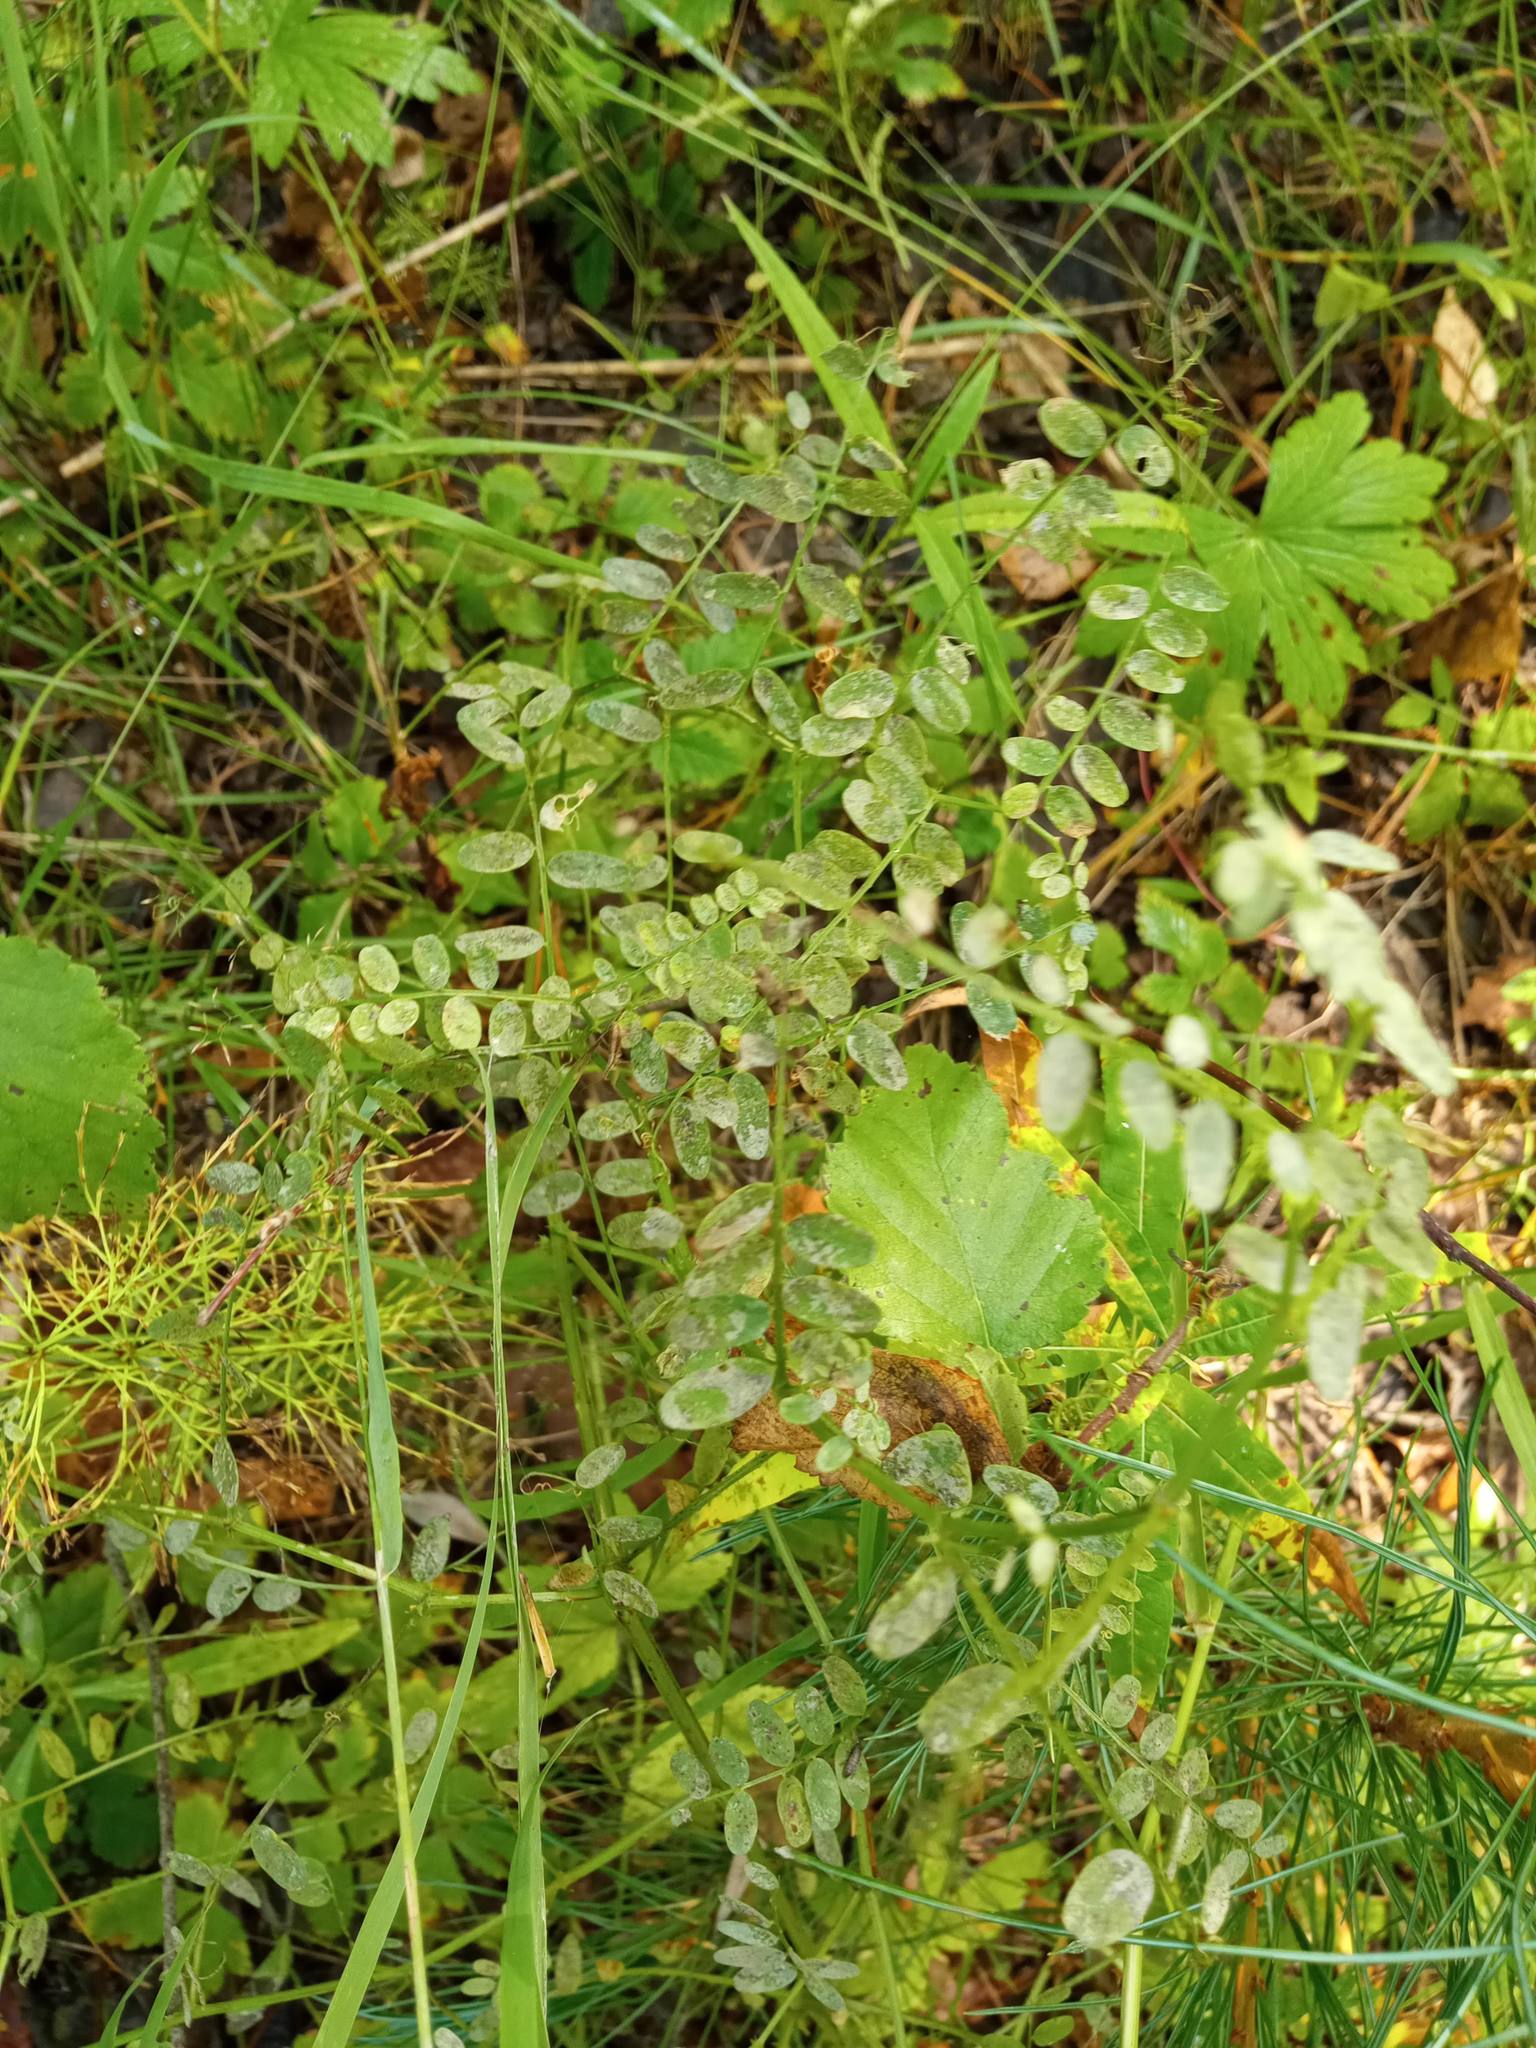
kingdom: Plantae
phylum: Tracheophyta
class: Magnoliopsida
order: Fabales
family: Fabaceae
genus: Vicia
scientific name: Vicia sylvatica
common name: Wood vetch
